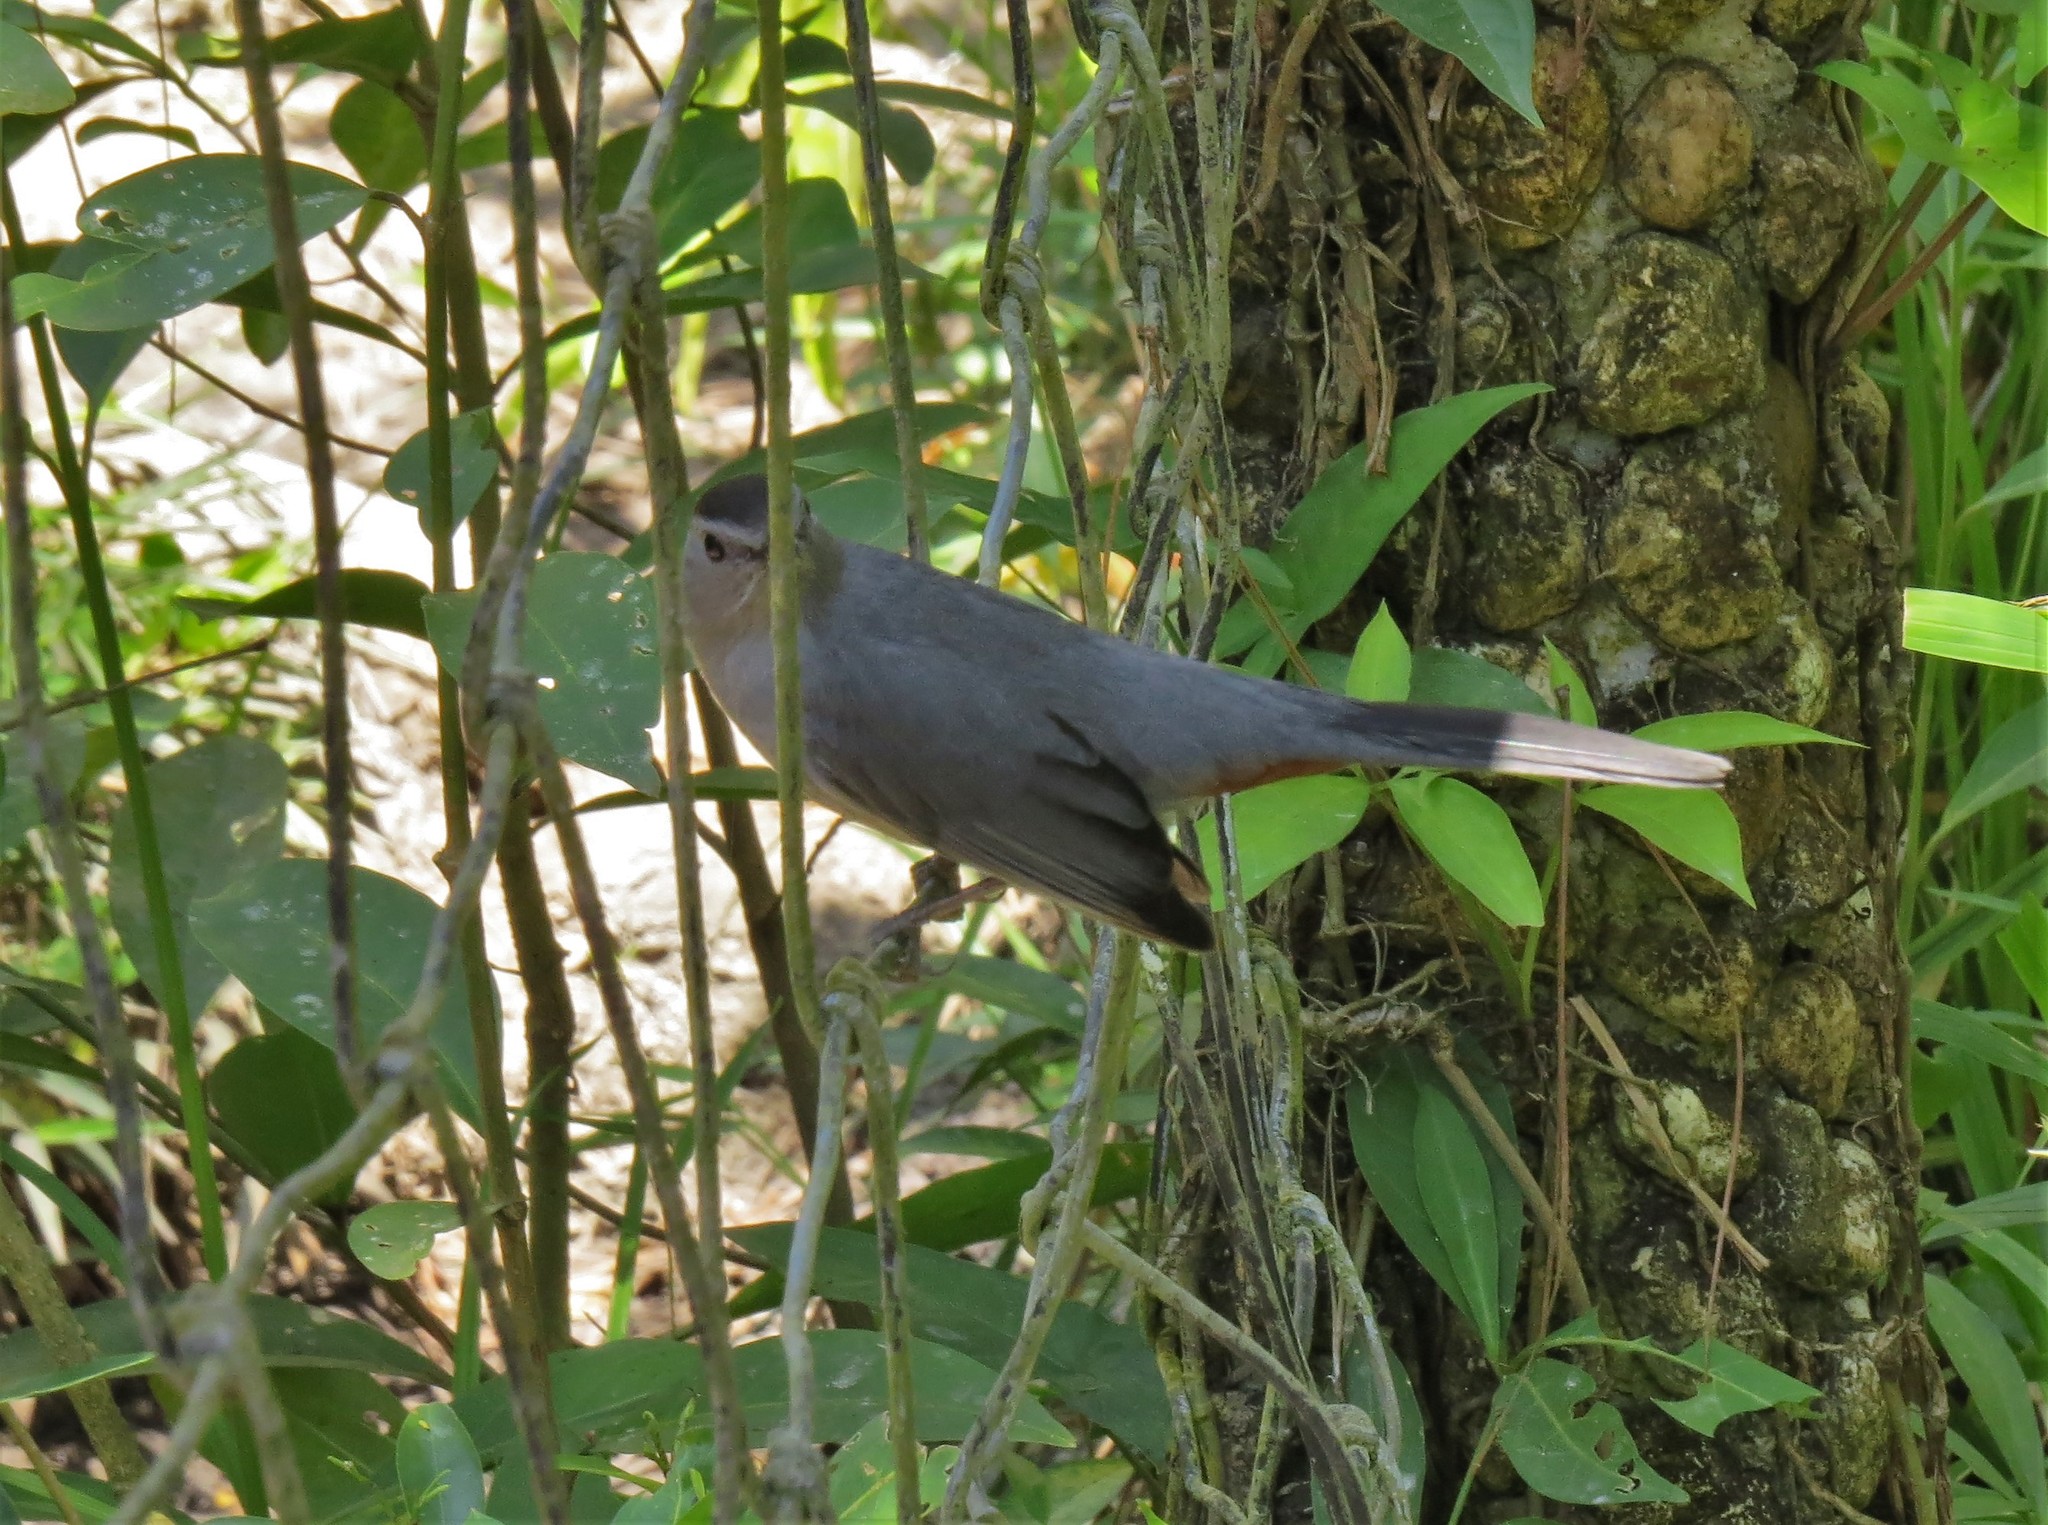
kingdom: Animalia
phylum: Chordata
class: Aves
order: Passeriformes
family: Mimidae
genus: Dumetella
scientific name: Dumetella carolinensis
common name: Gray catbird
